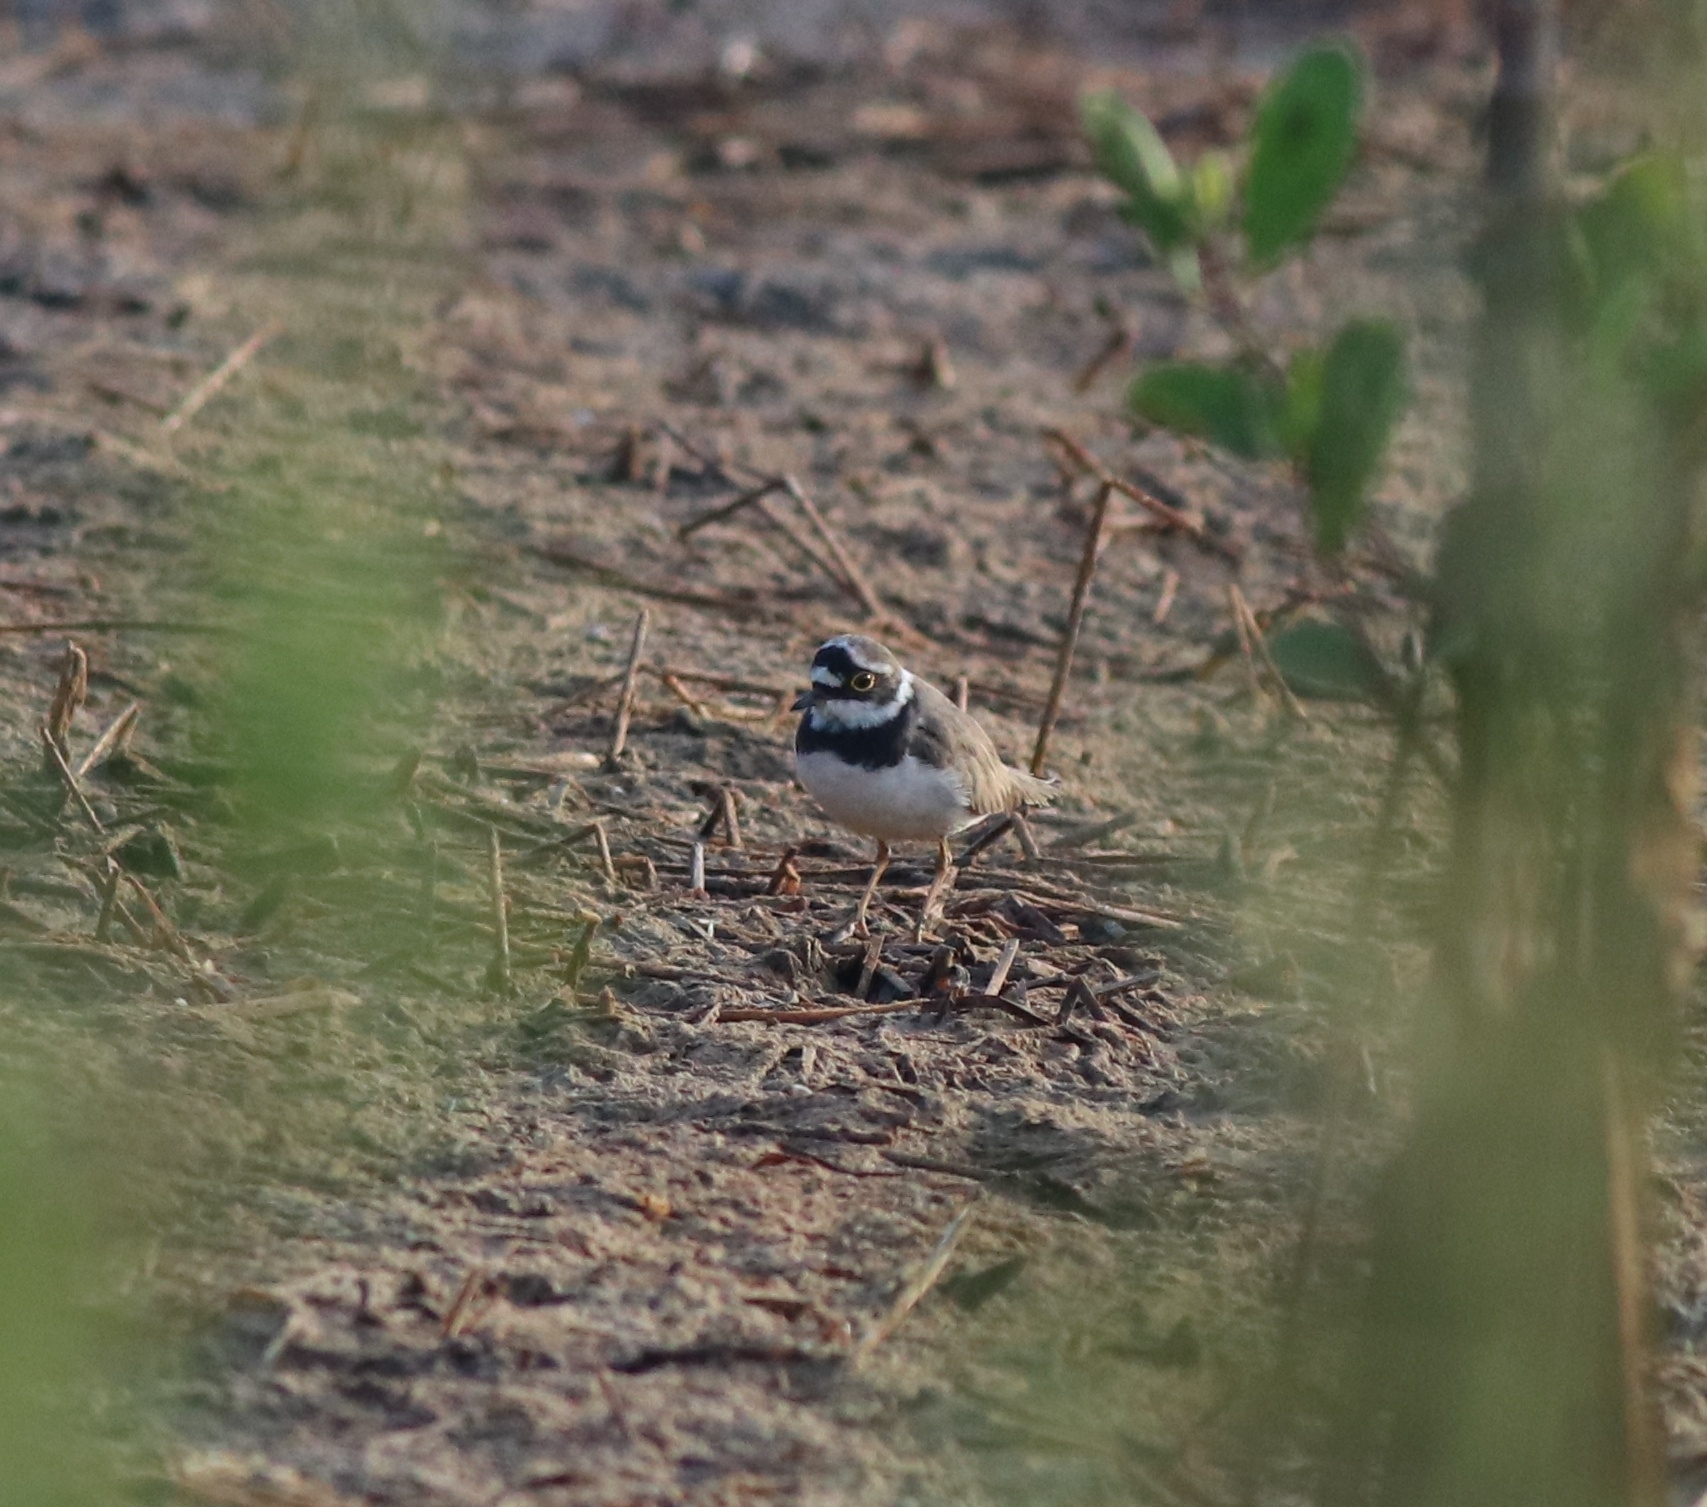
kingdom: Animalia
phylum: Chordata
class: Aves
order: Charadriiformes
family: Charadriidae
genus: Charadrius
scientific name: Charadrius dubius
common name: Little ringed plover
